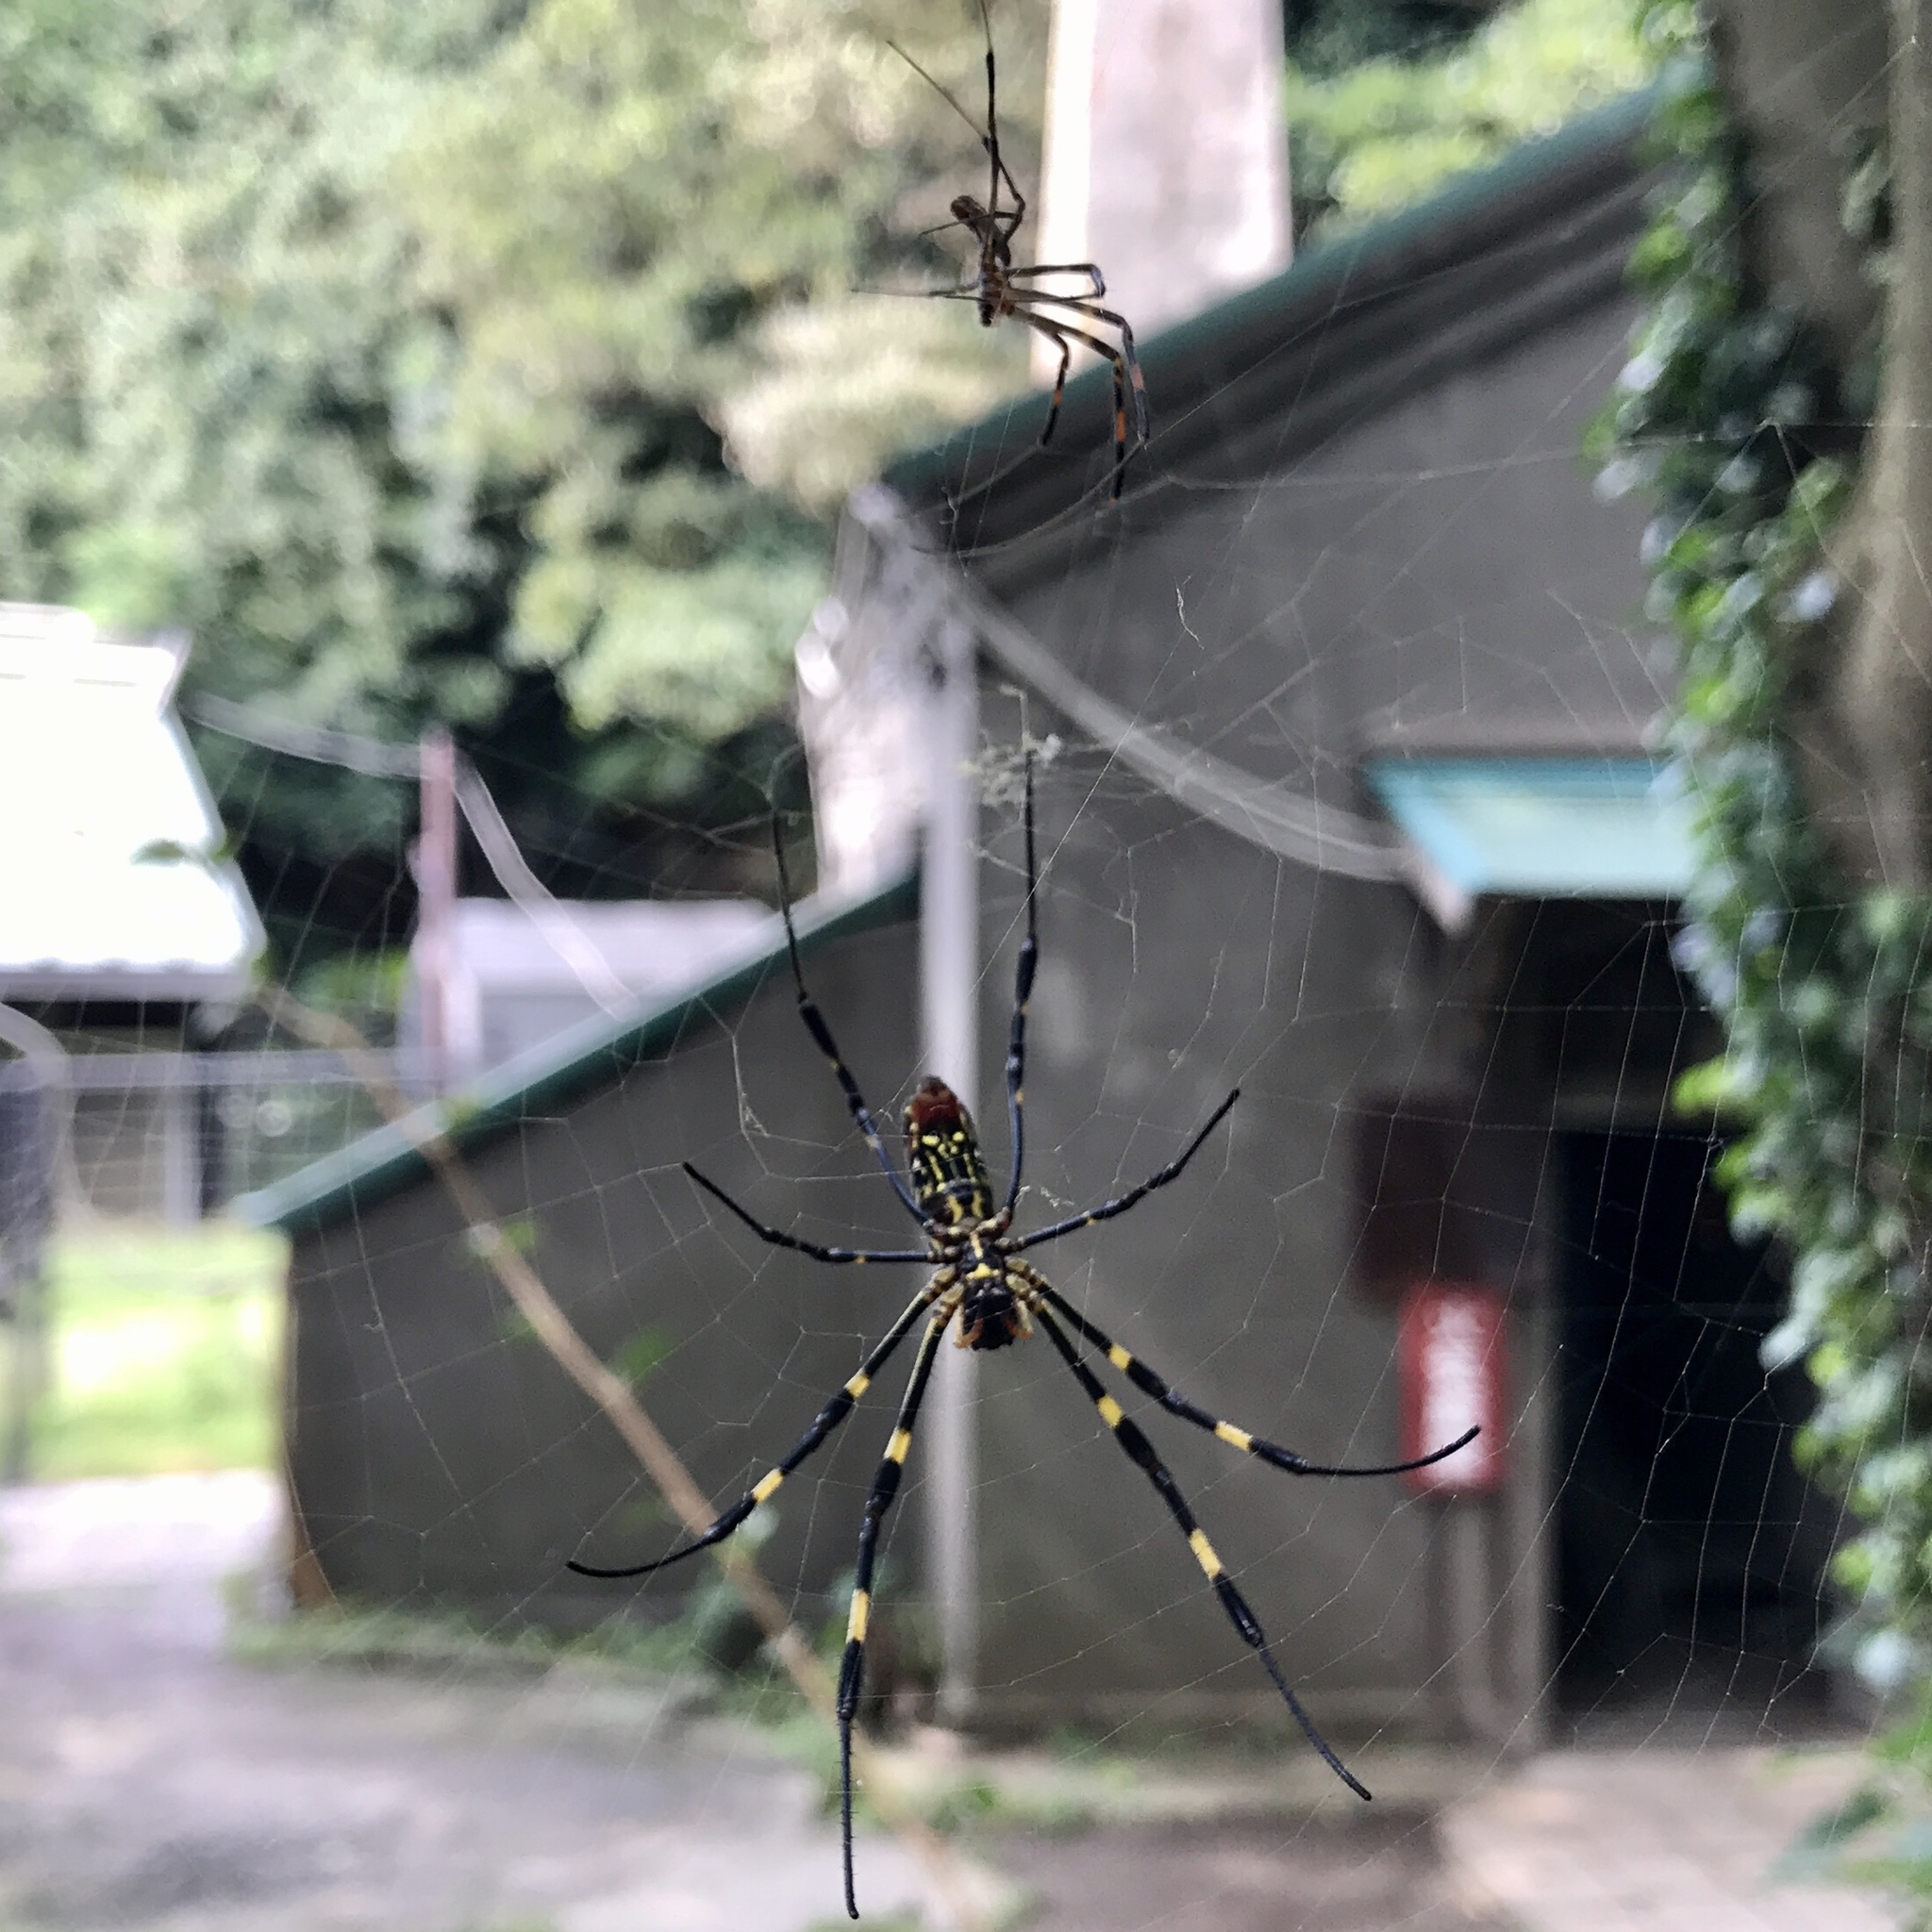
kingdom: Animalia
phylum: Arthropoda
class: Arachnida
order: Araneae
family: Araneidae
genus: Trichonephila
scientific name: Trichonephila clavata
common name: Jorō spider
